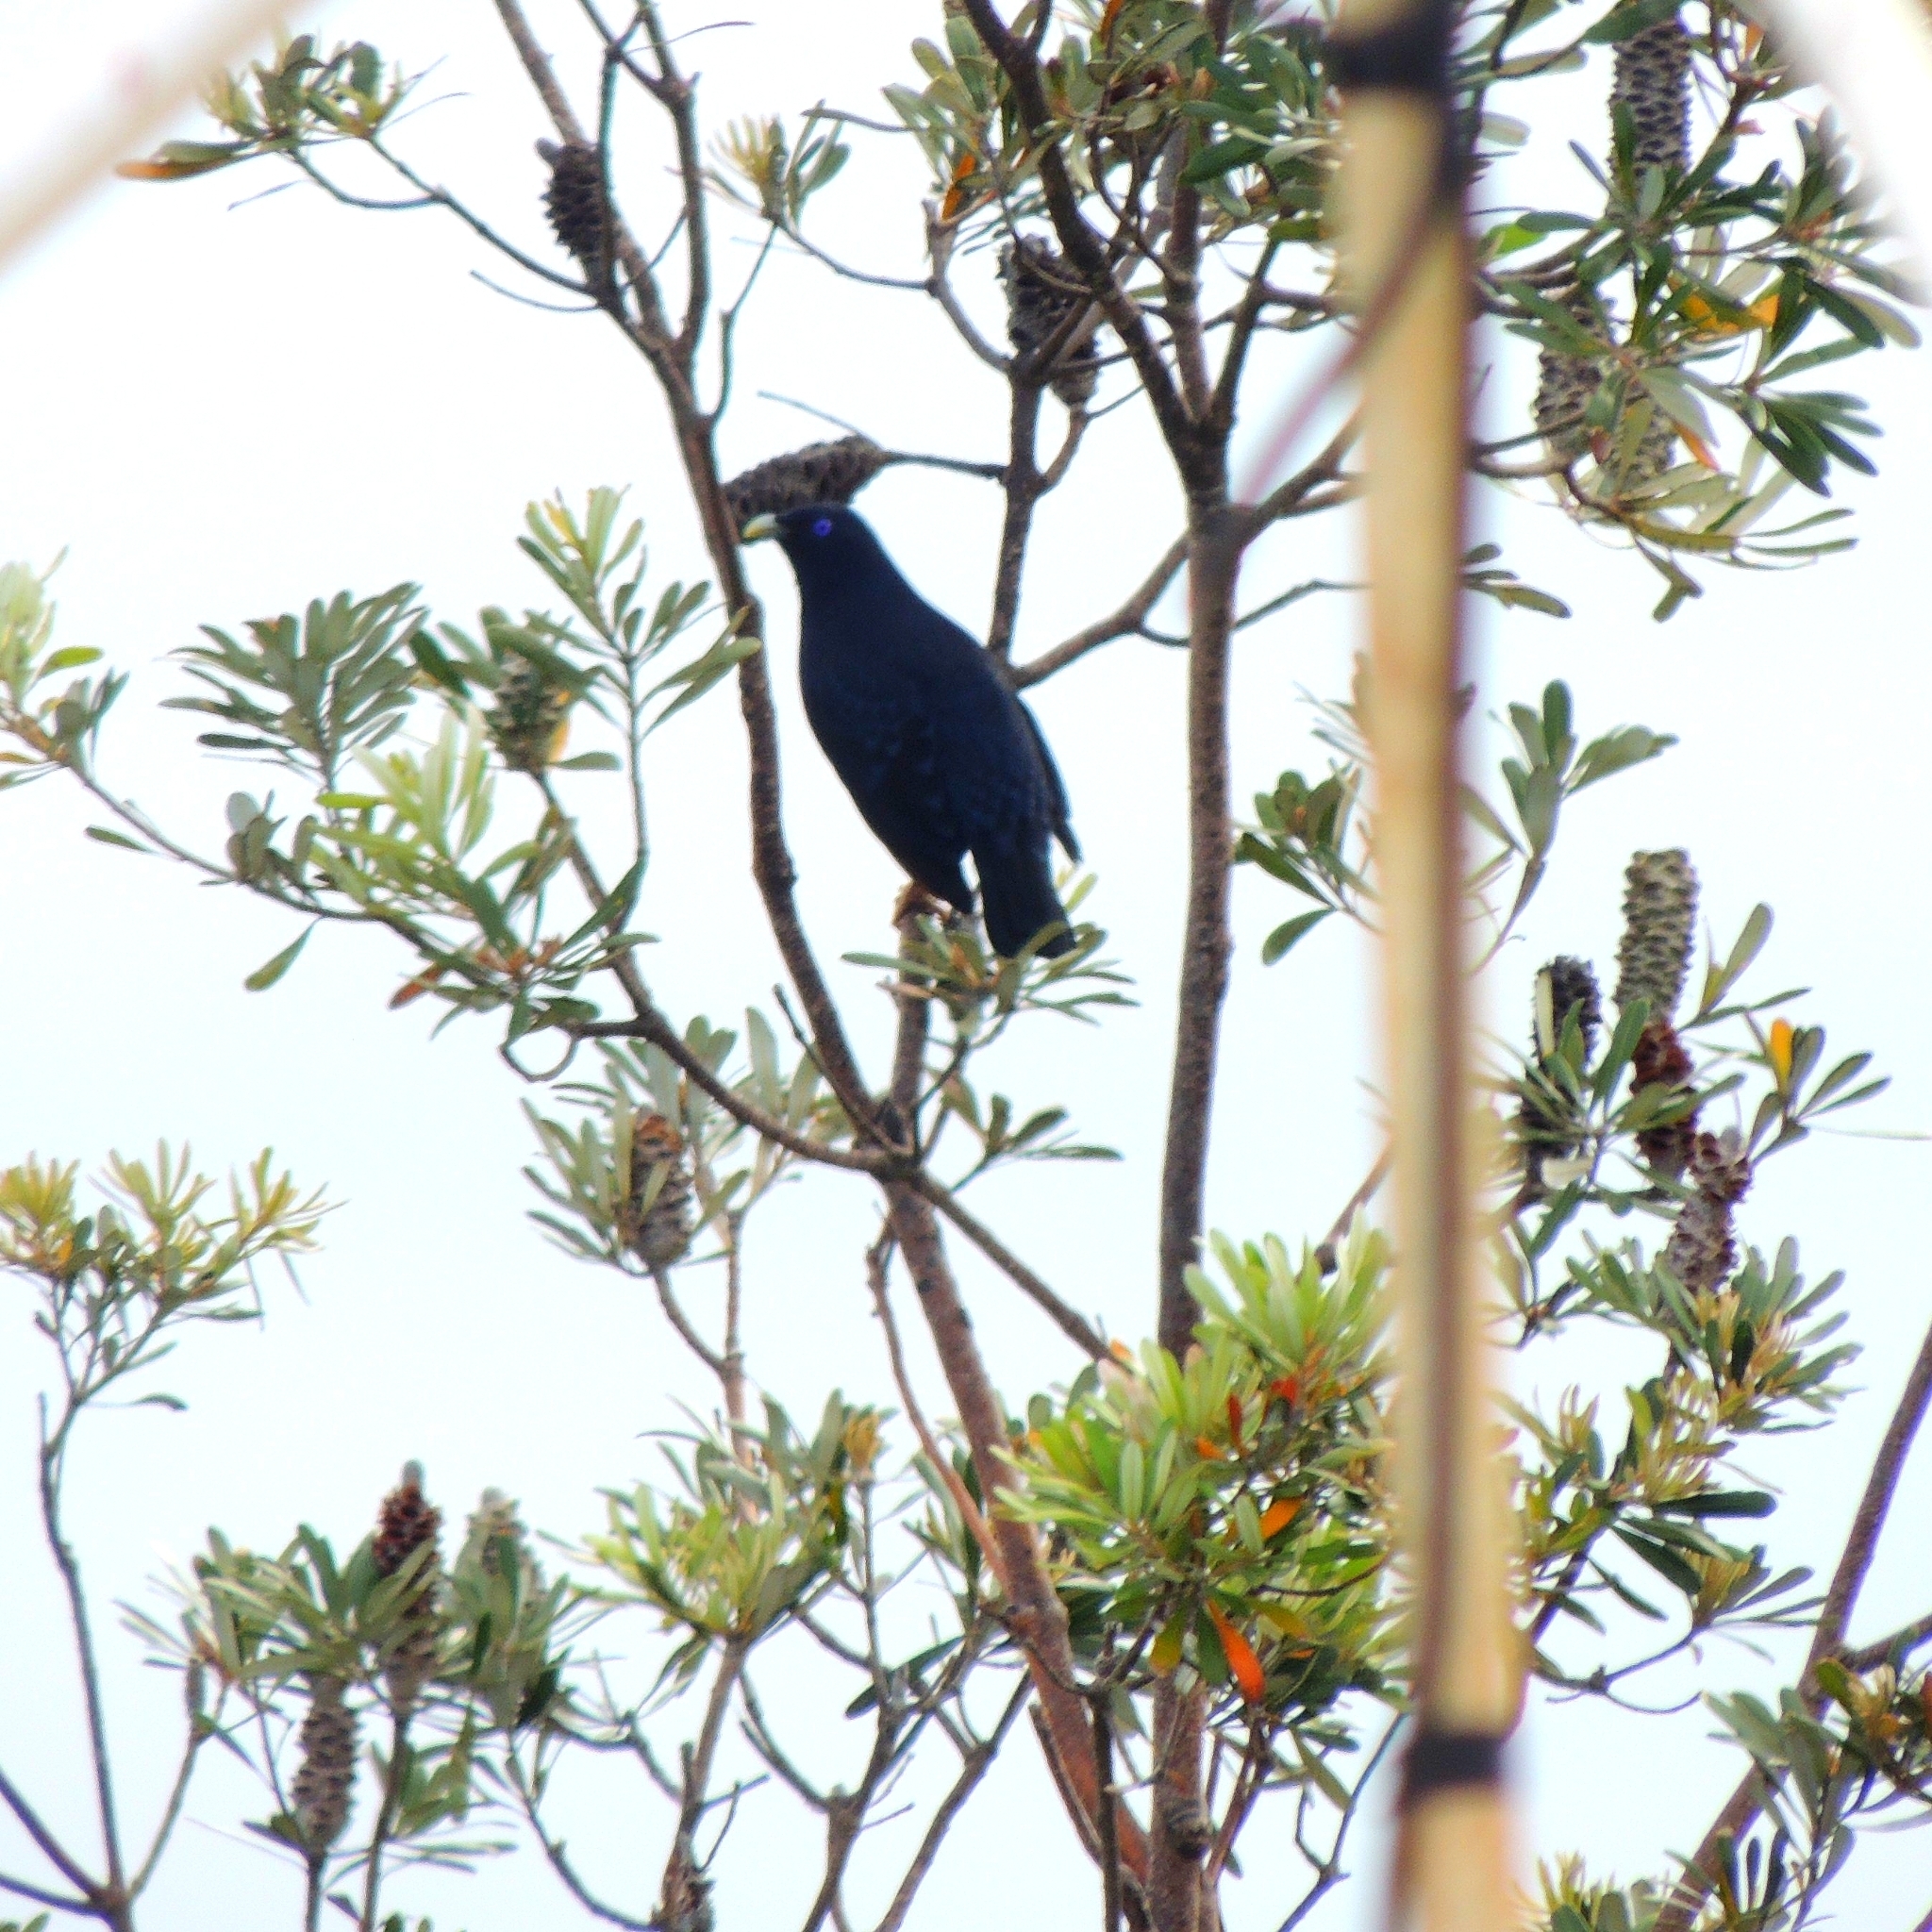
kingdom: Animalia
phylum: Chordata
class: Aves
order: Passeriformes
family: Ptilonorhynchidae
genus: Ptilonorhynchus
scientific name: Ptilonorhynchus violaceus
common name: Satin bowerbird
